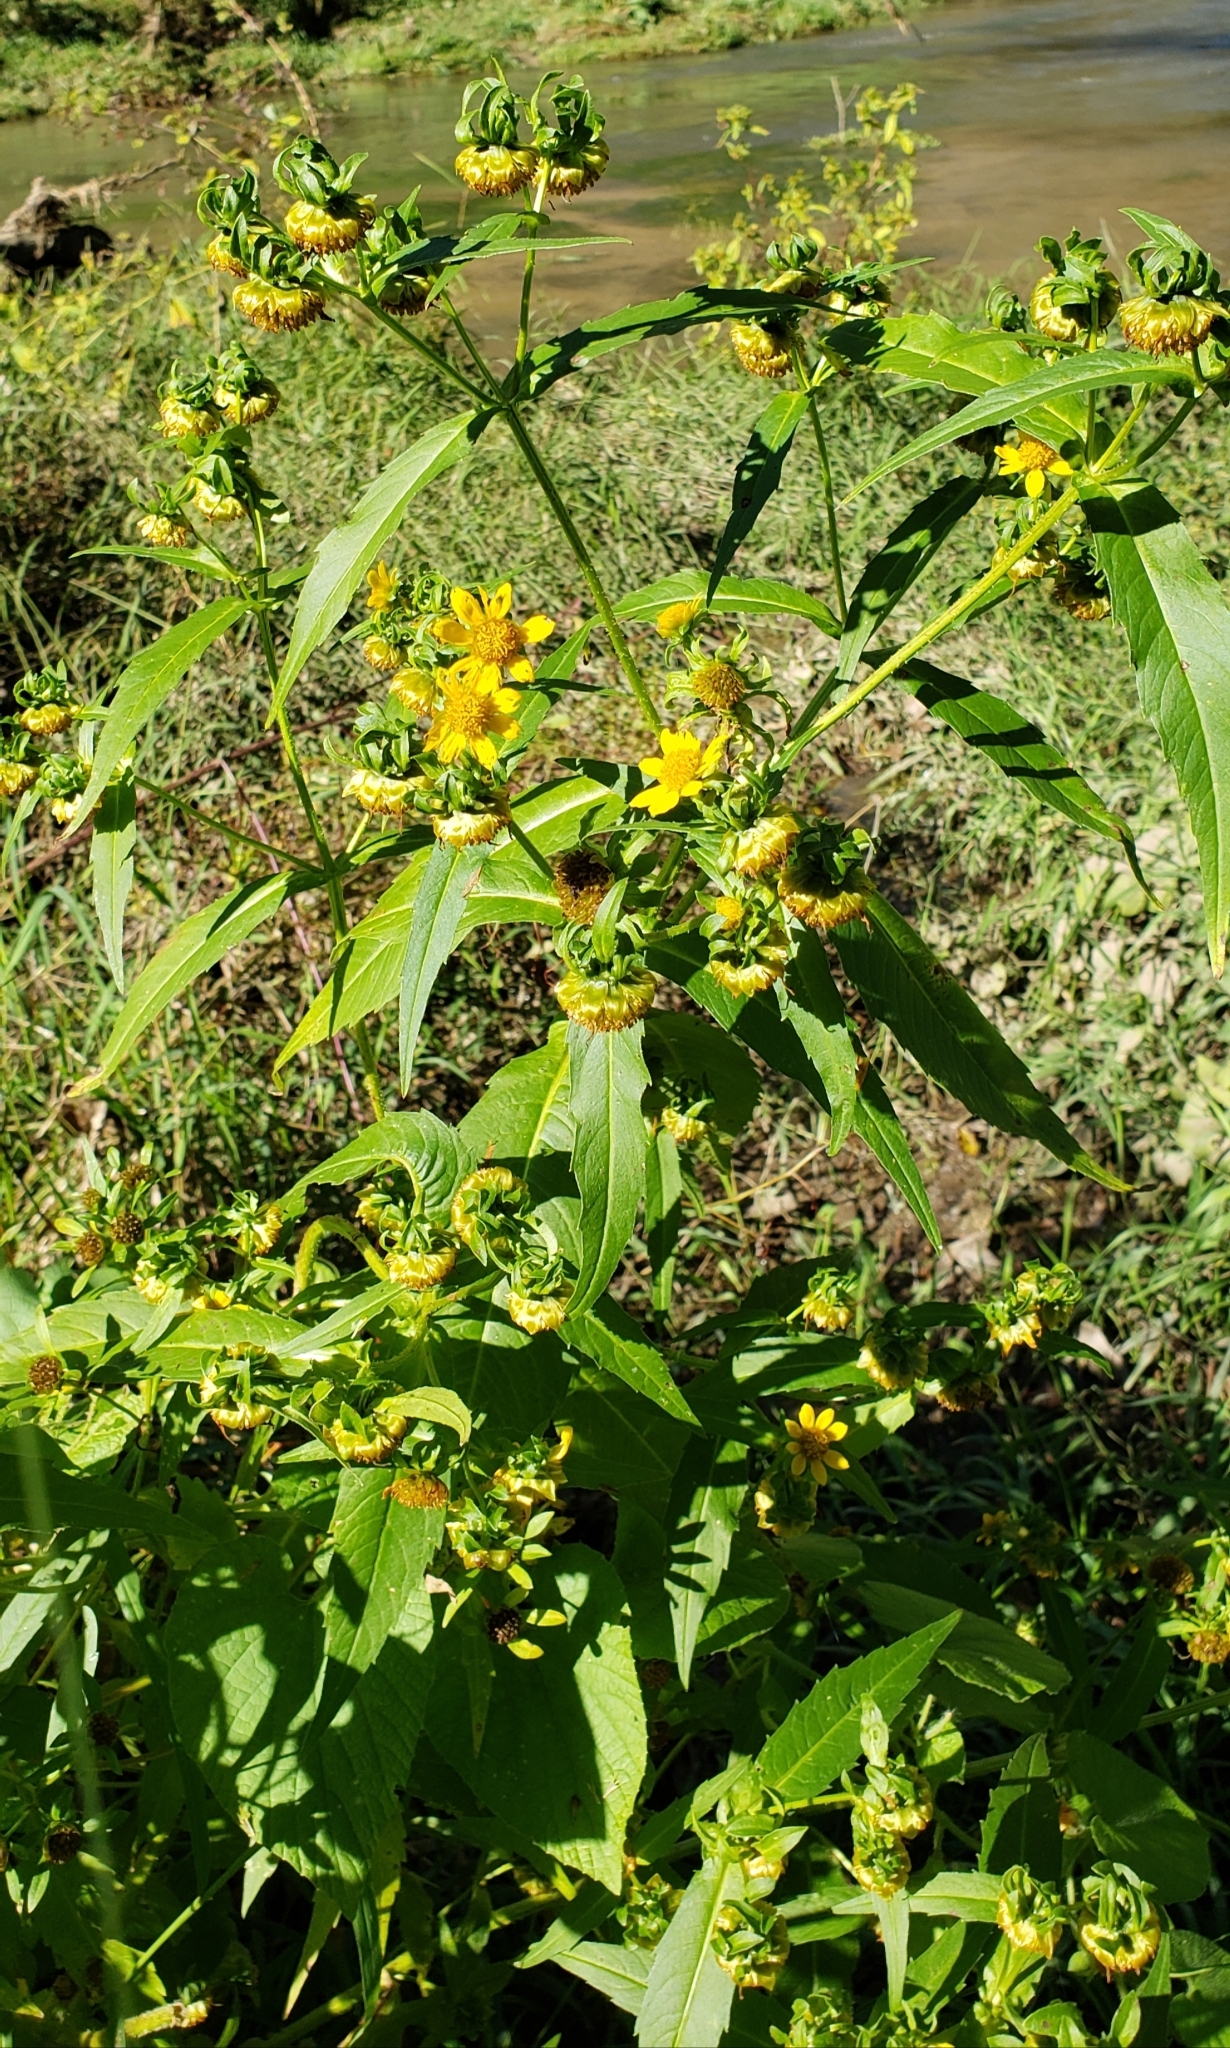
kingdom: Plantae
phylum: Tracheophyta
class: Magnoliopsida
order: Asterales
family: Asteraceae
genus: Bidens
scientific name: Bidens cernua
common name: Nodding bur-marigold
